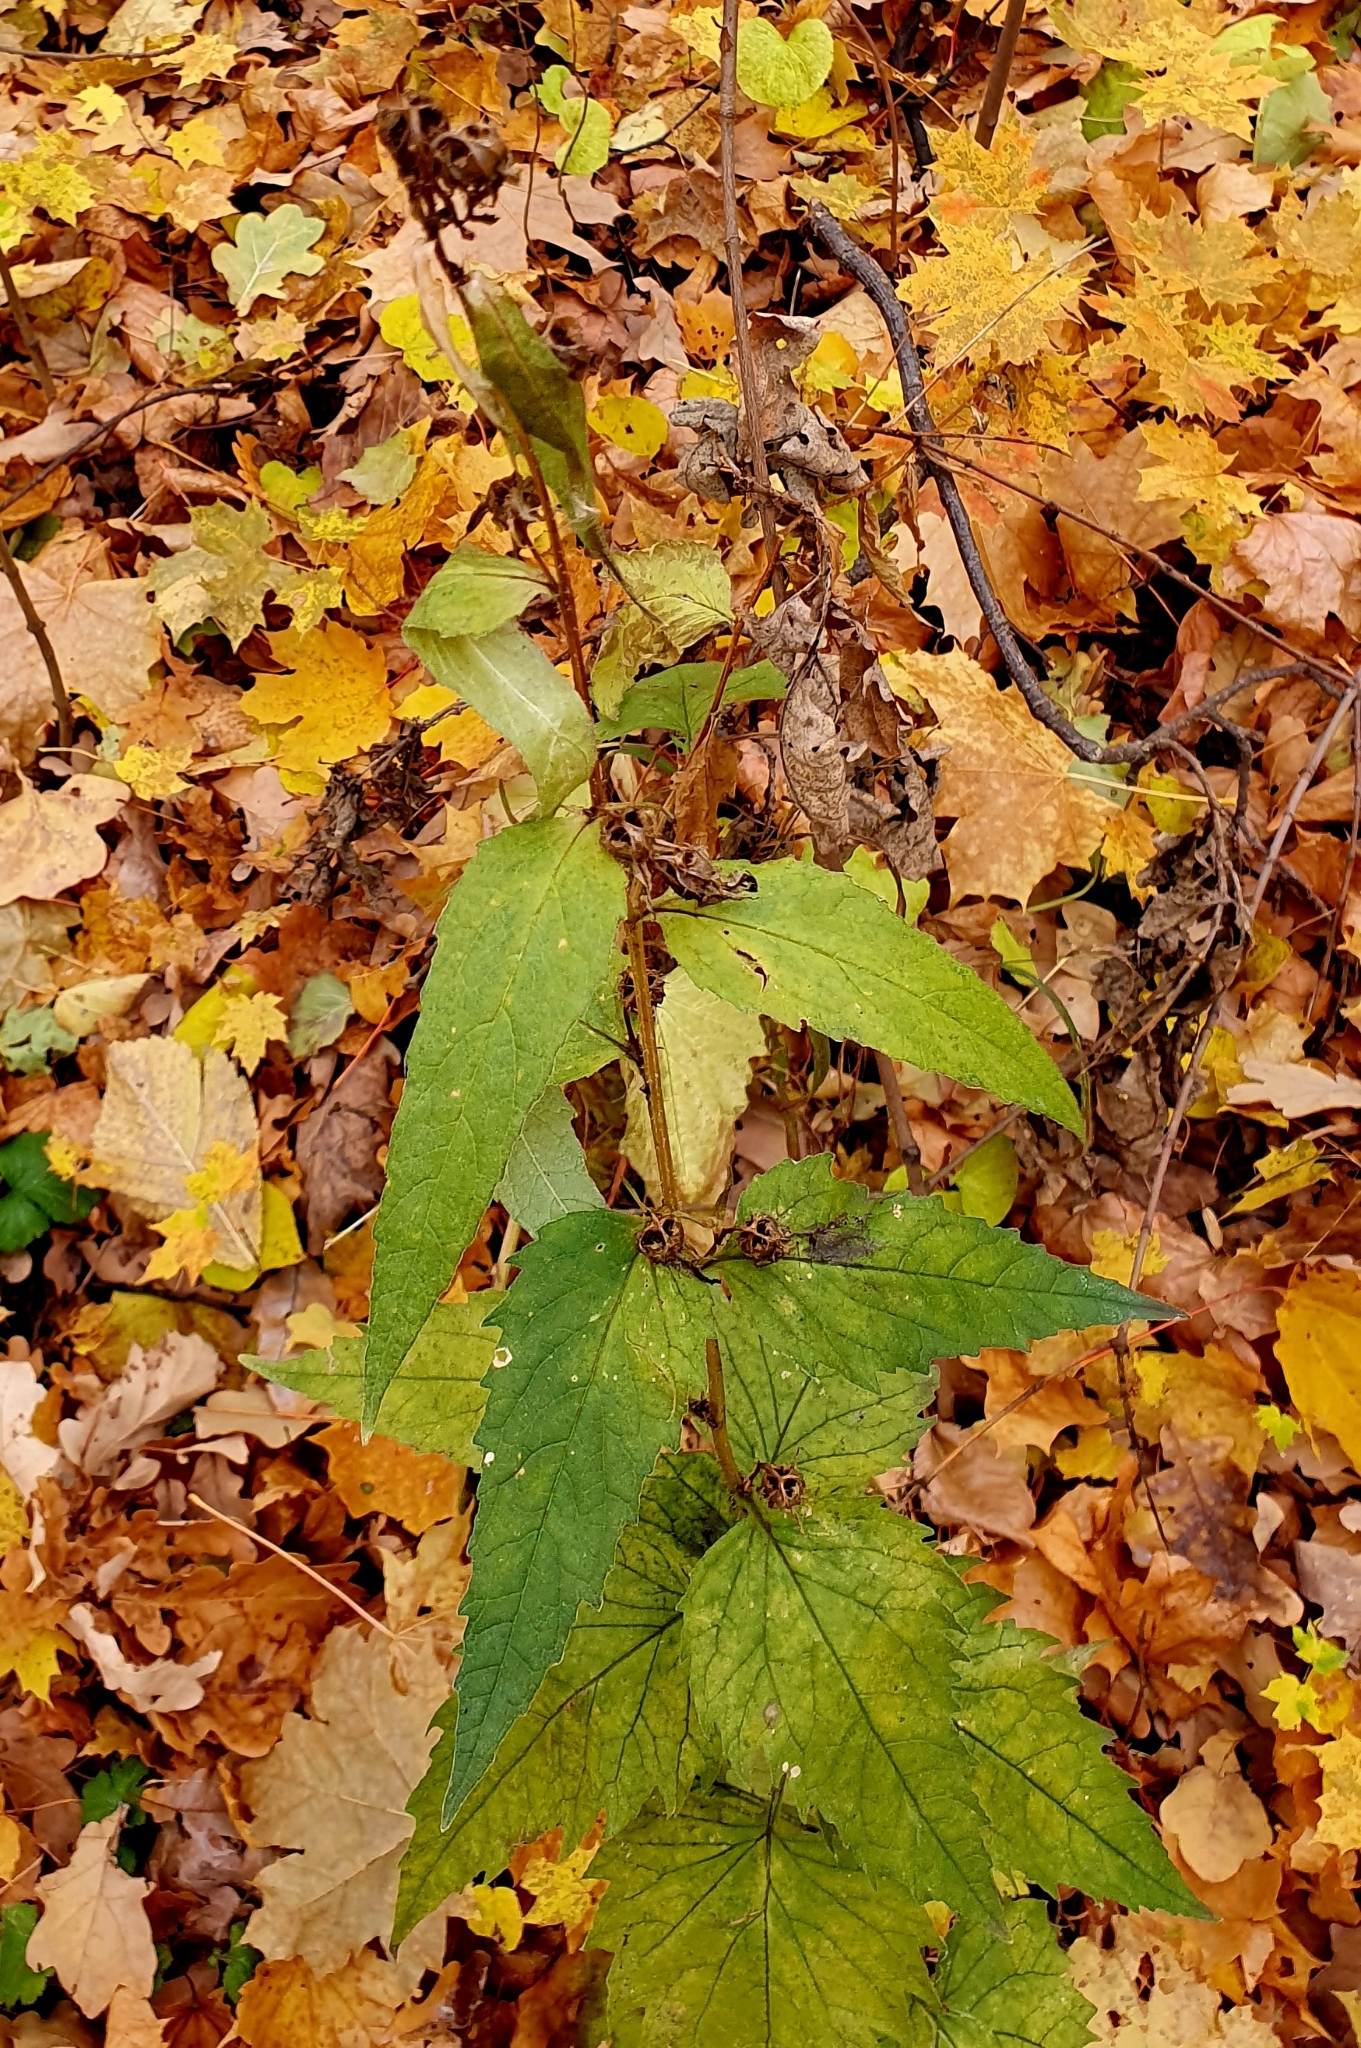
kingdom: Plantae
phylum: Tracheophyta
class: Magnoliopsida
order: Asterales
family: Campanulaceae
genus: Campanula
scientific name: Campanula trachelium
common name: Nettle-leaved bellflower
